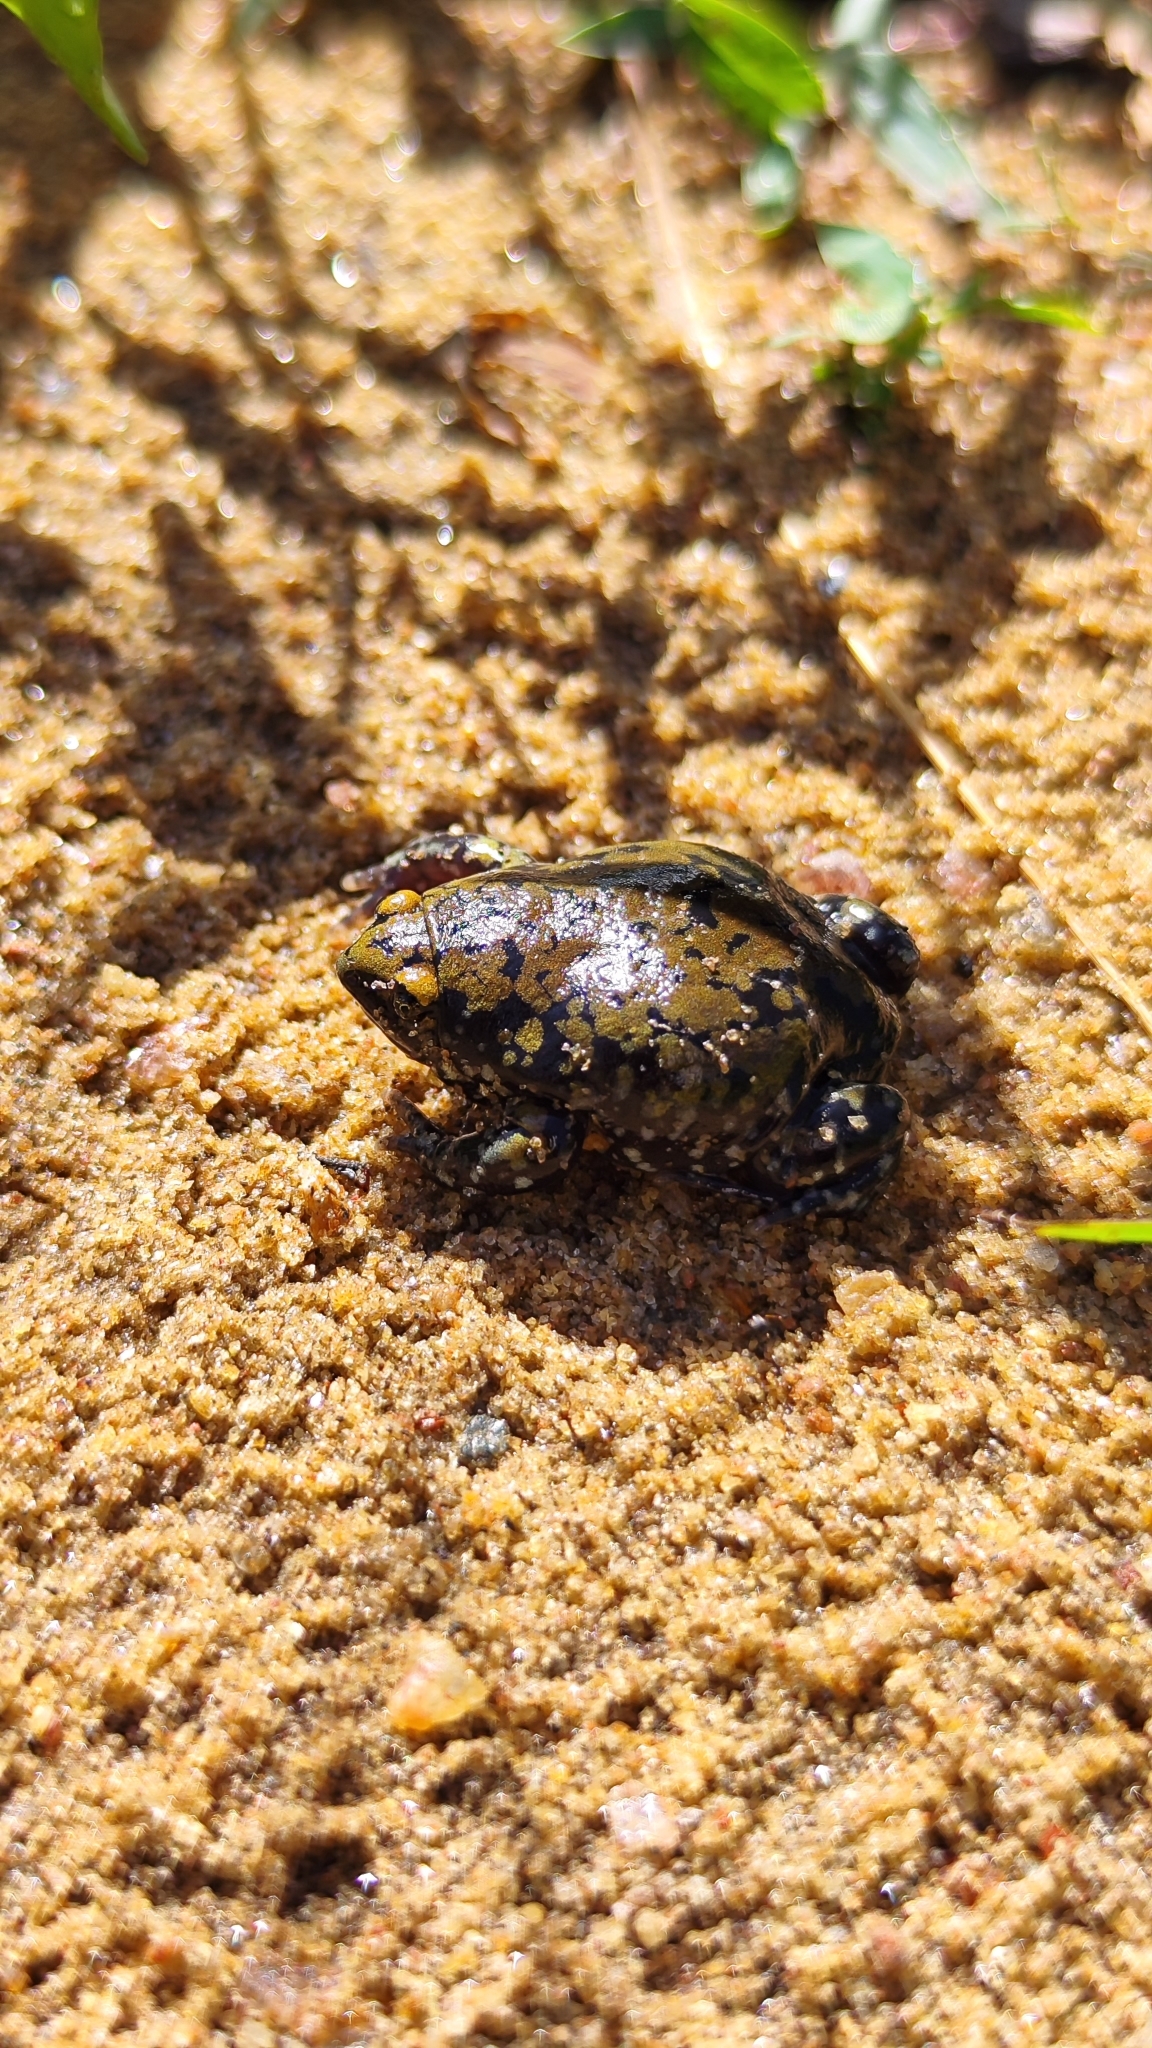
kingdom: Animalia
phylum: Chordata
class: Amphibia
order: Anura
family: Microhylidae
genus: Dermatonotus
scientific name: Dermatonotus muelleri
